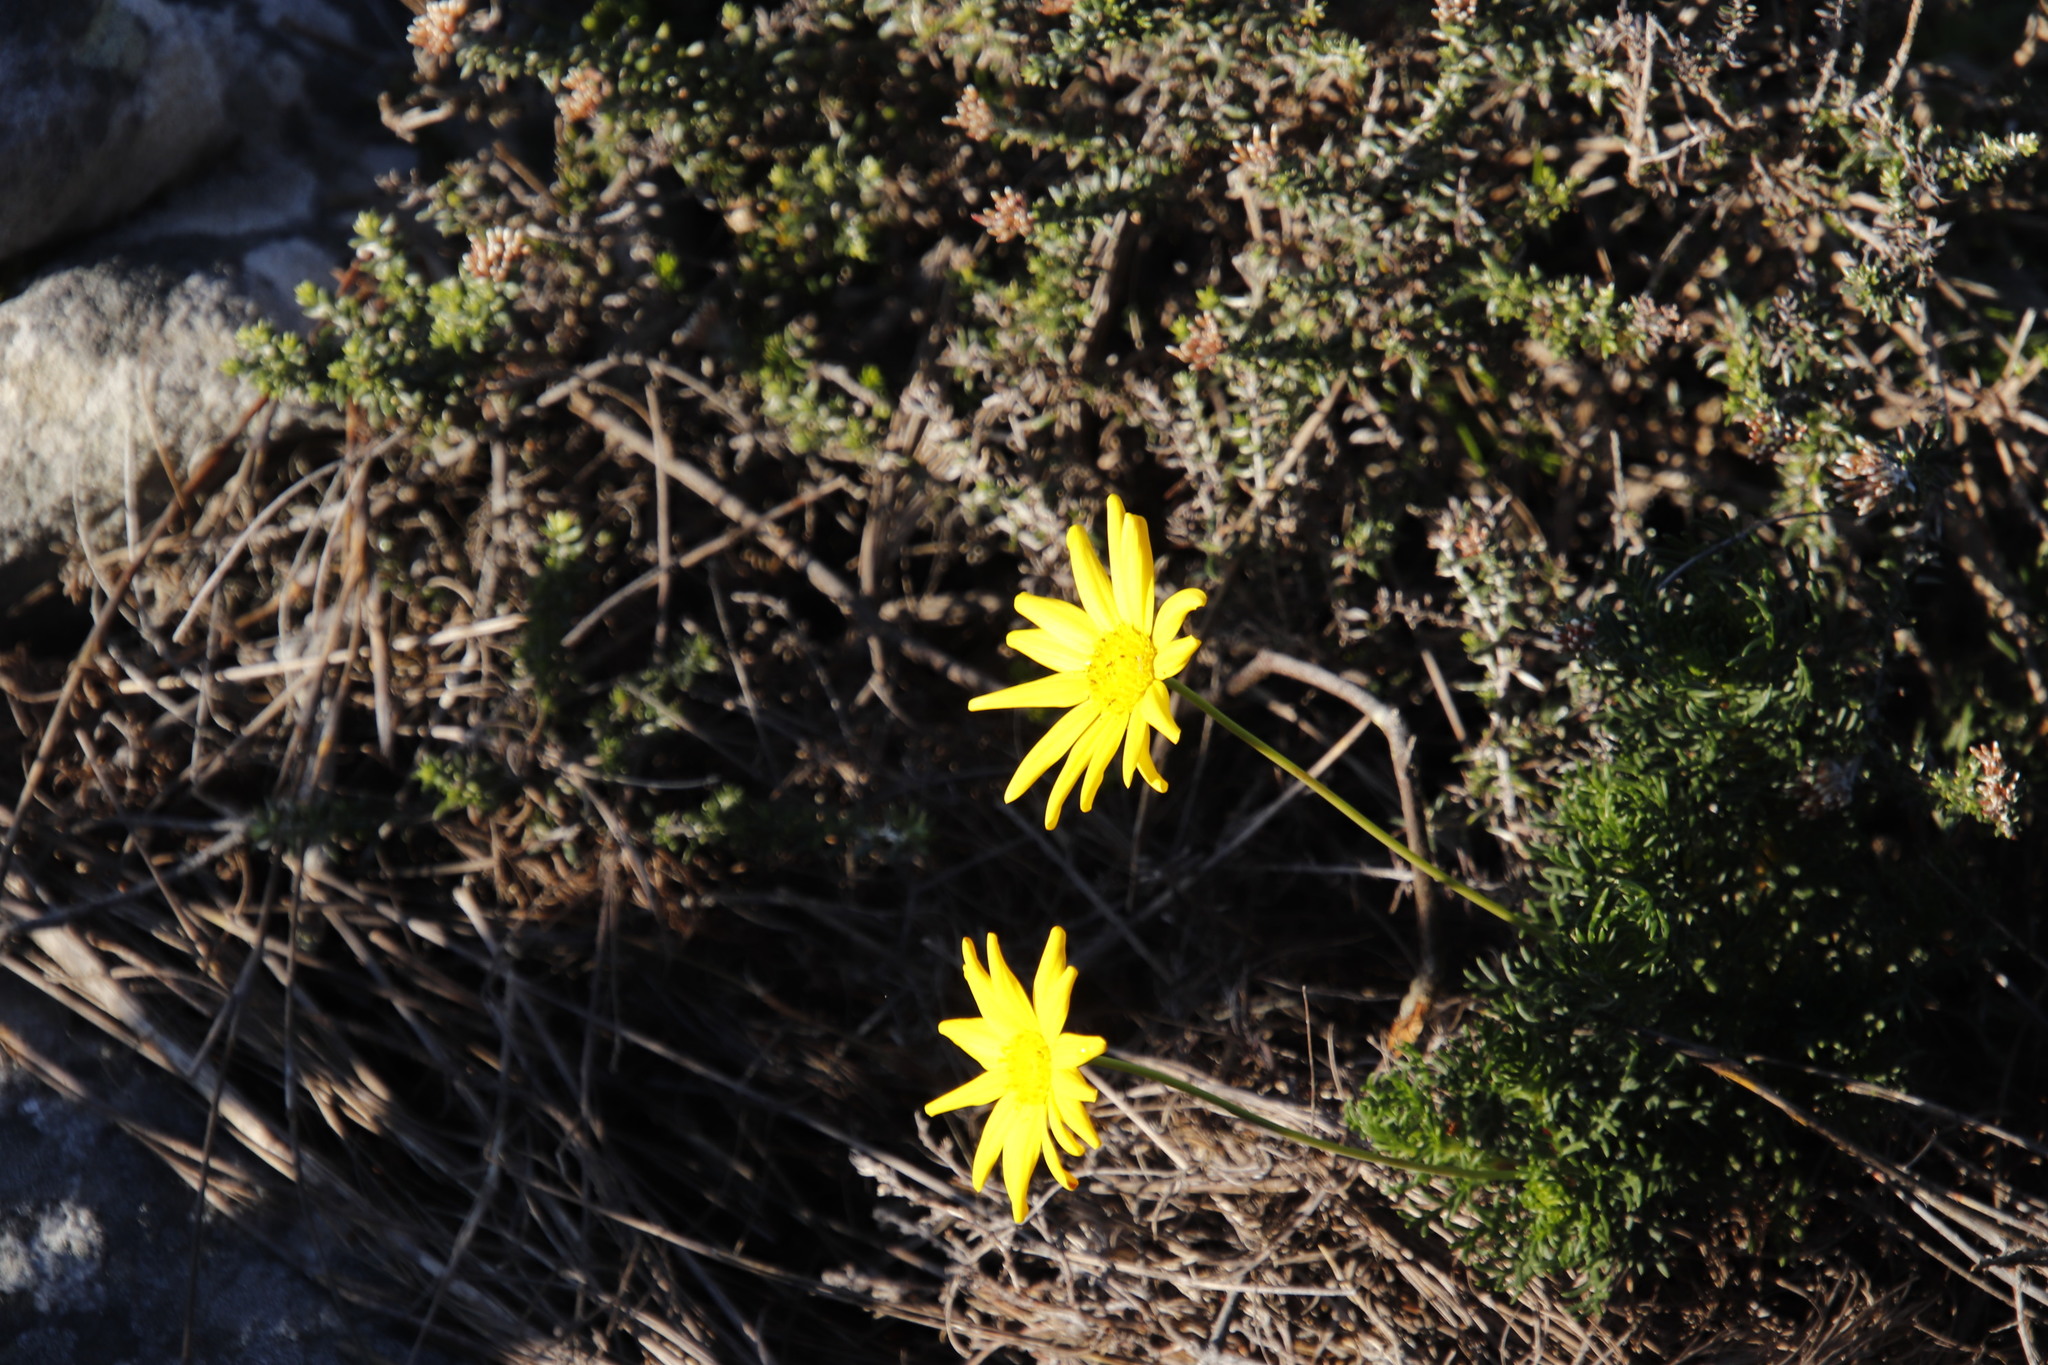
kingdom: Plantae
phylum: Tracheophyta
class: Magnoliopsida
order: Asterales
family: Asteraceae
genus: Euryops
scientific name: Euryops abrotanifolius
